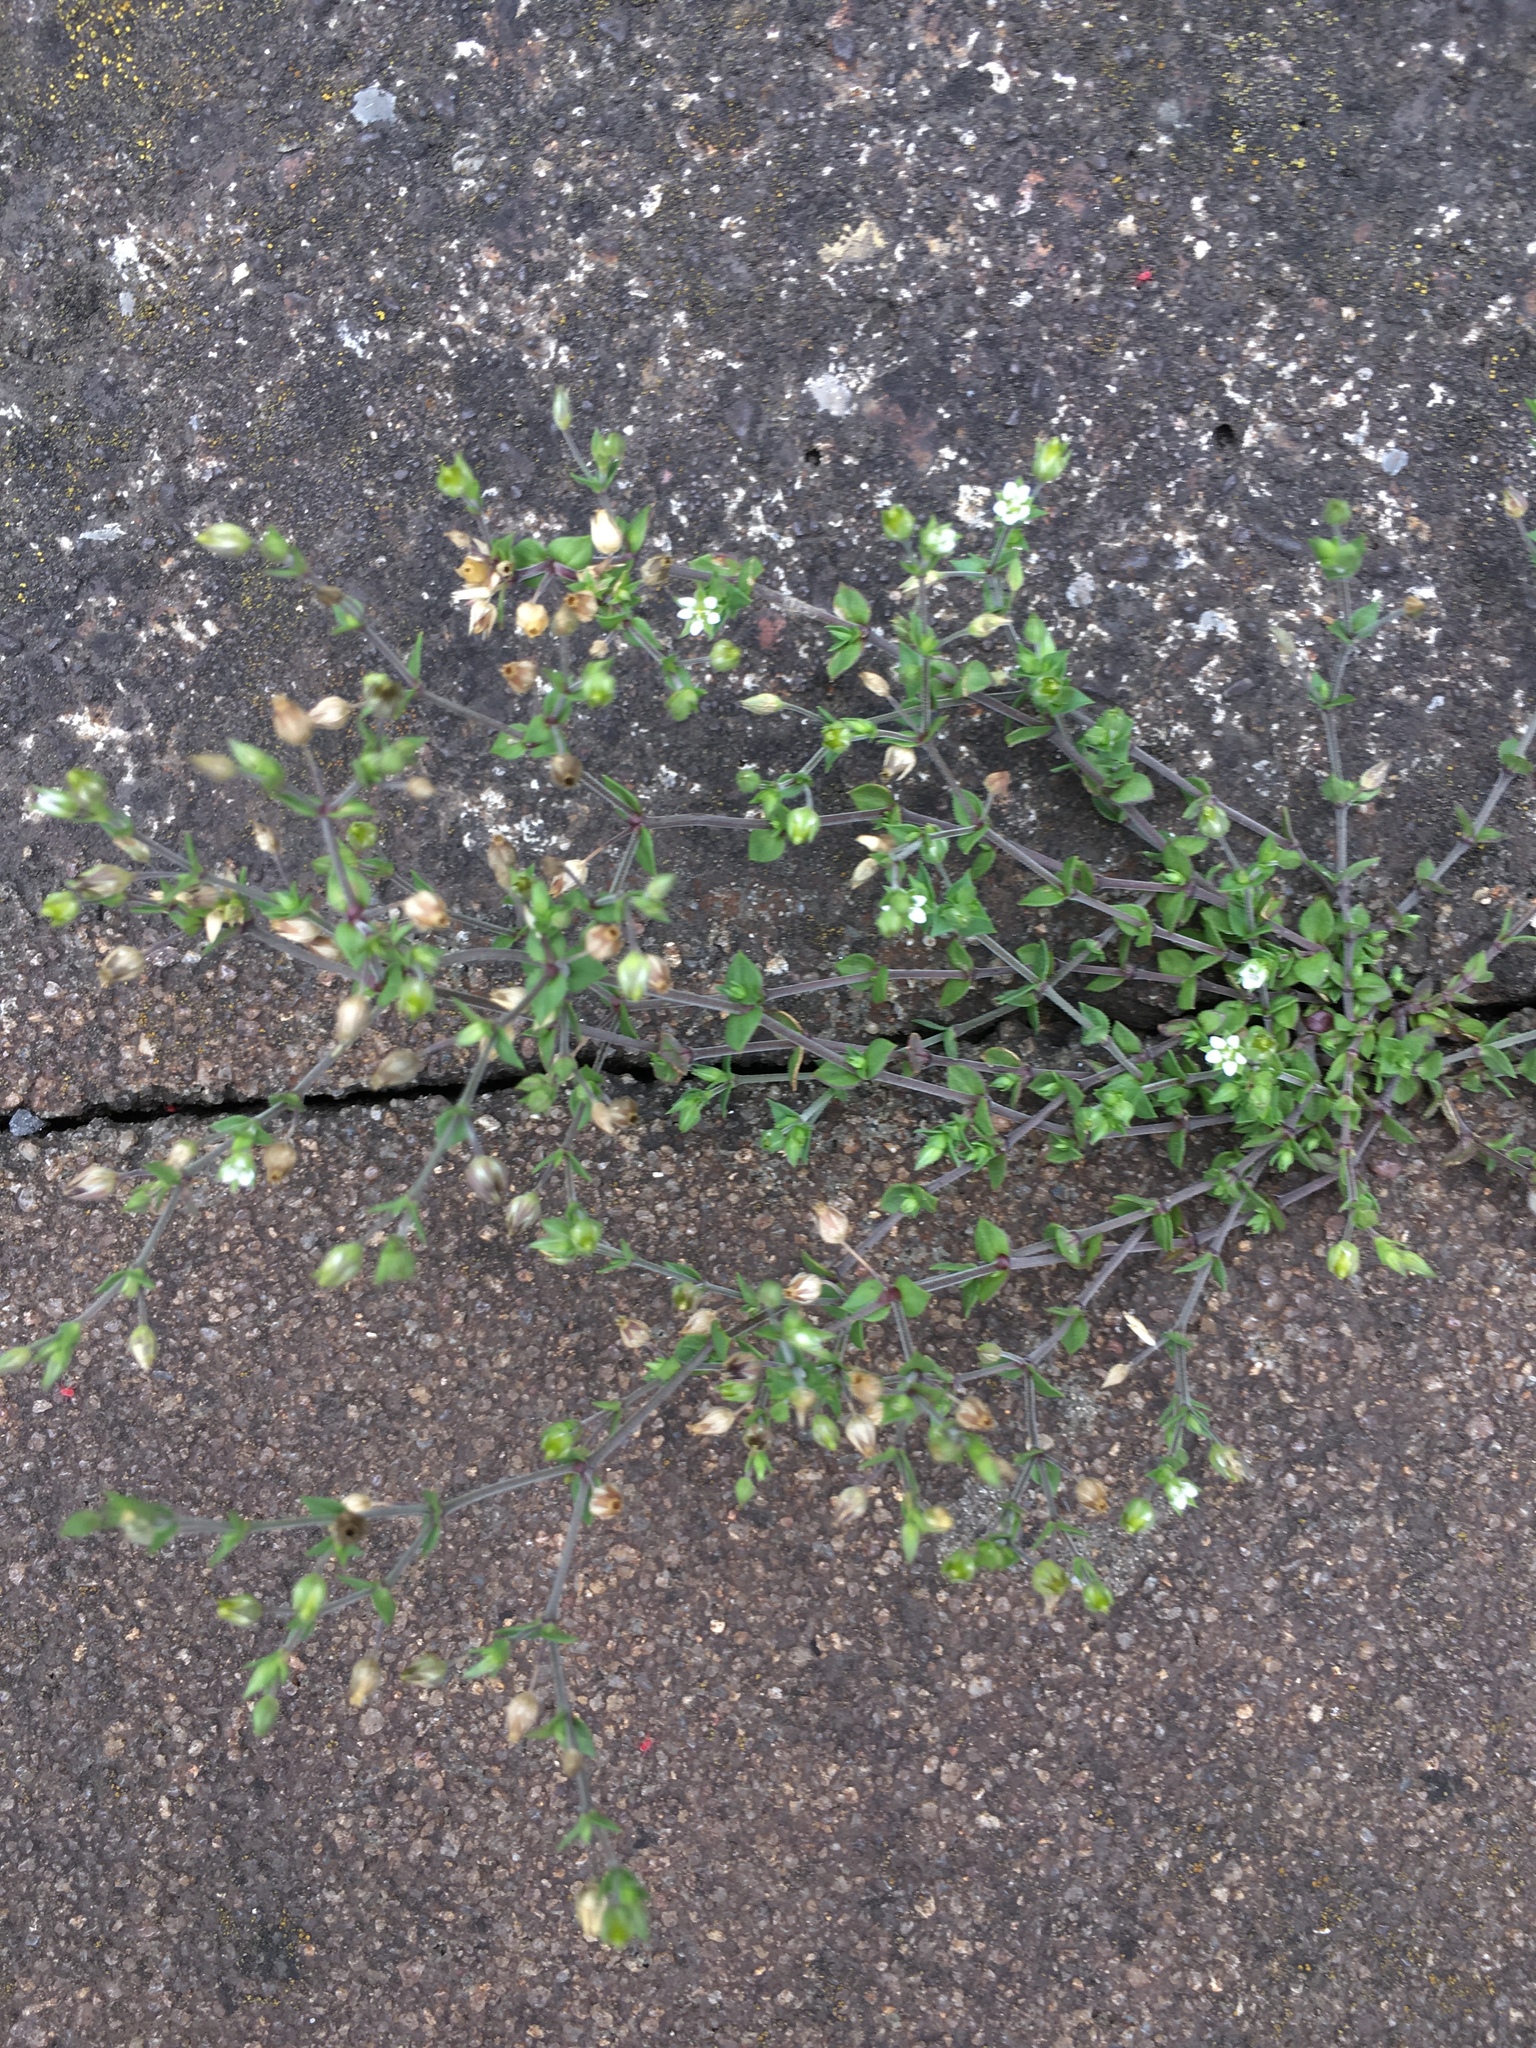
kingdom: Plantae
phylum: Tracheophyta
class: Magnoliopsida
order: Caryophyllales
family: Caryophyllaceae
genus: Arenaria
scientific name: Arenaria serpyllifolia
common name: Thyme-leaved sandwort
